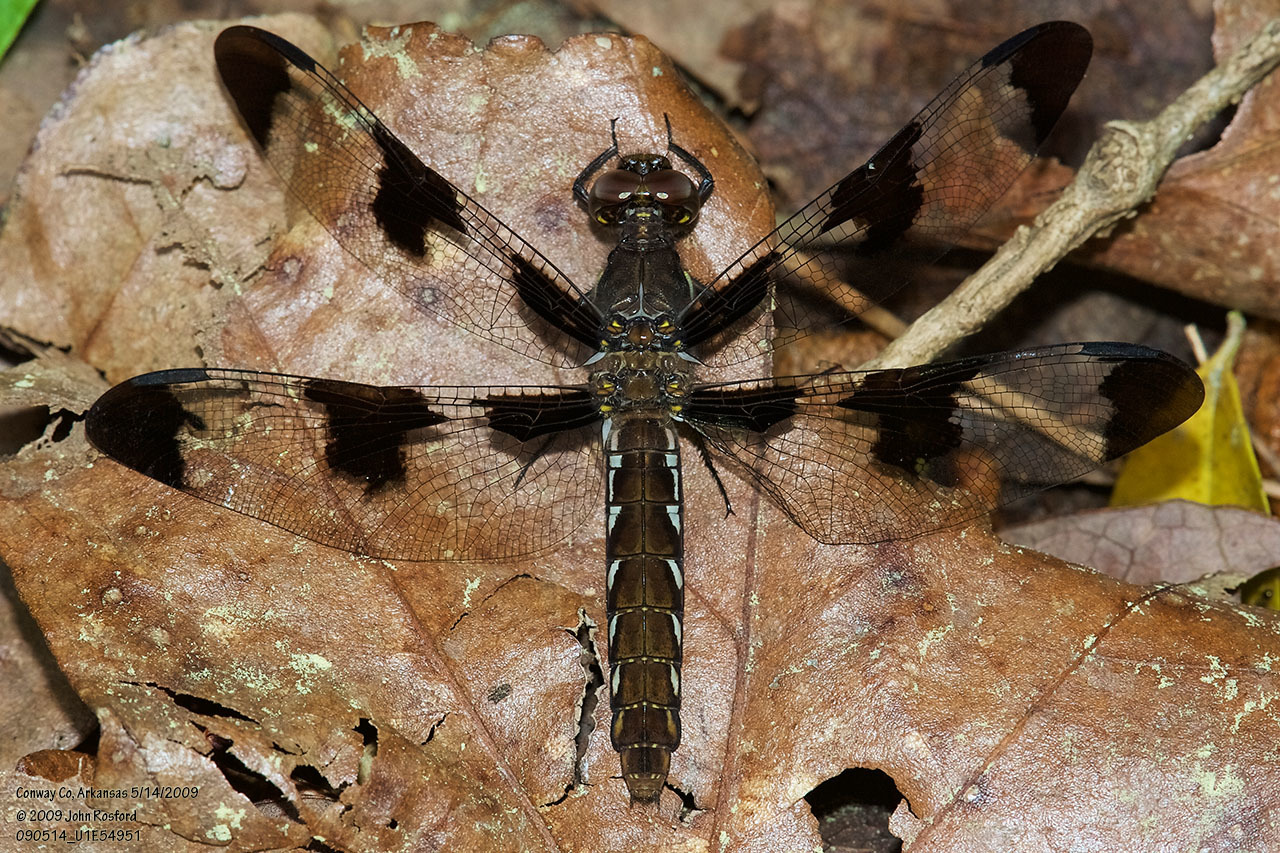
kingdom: Animalia
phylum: Arthropoda
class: Insecta
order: Odonata
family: Libellulidae
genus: Plathemis
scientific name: Plathemis lydia
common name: Common whitetail
